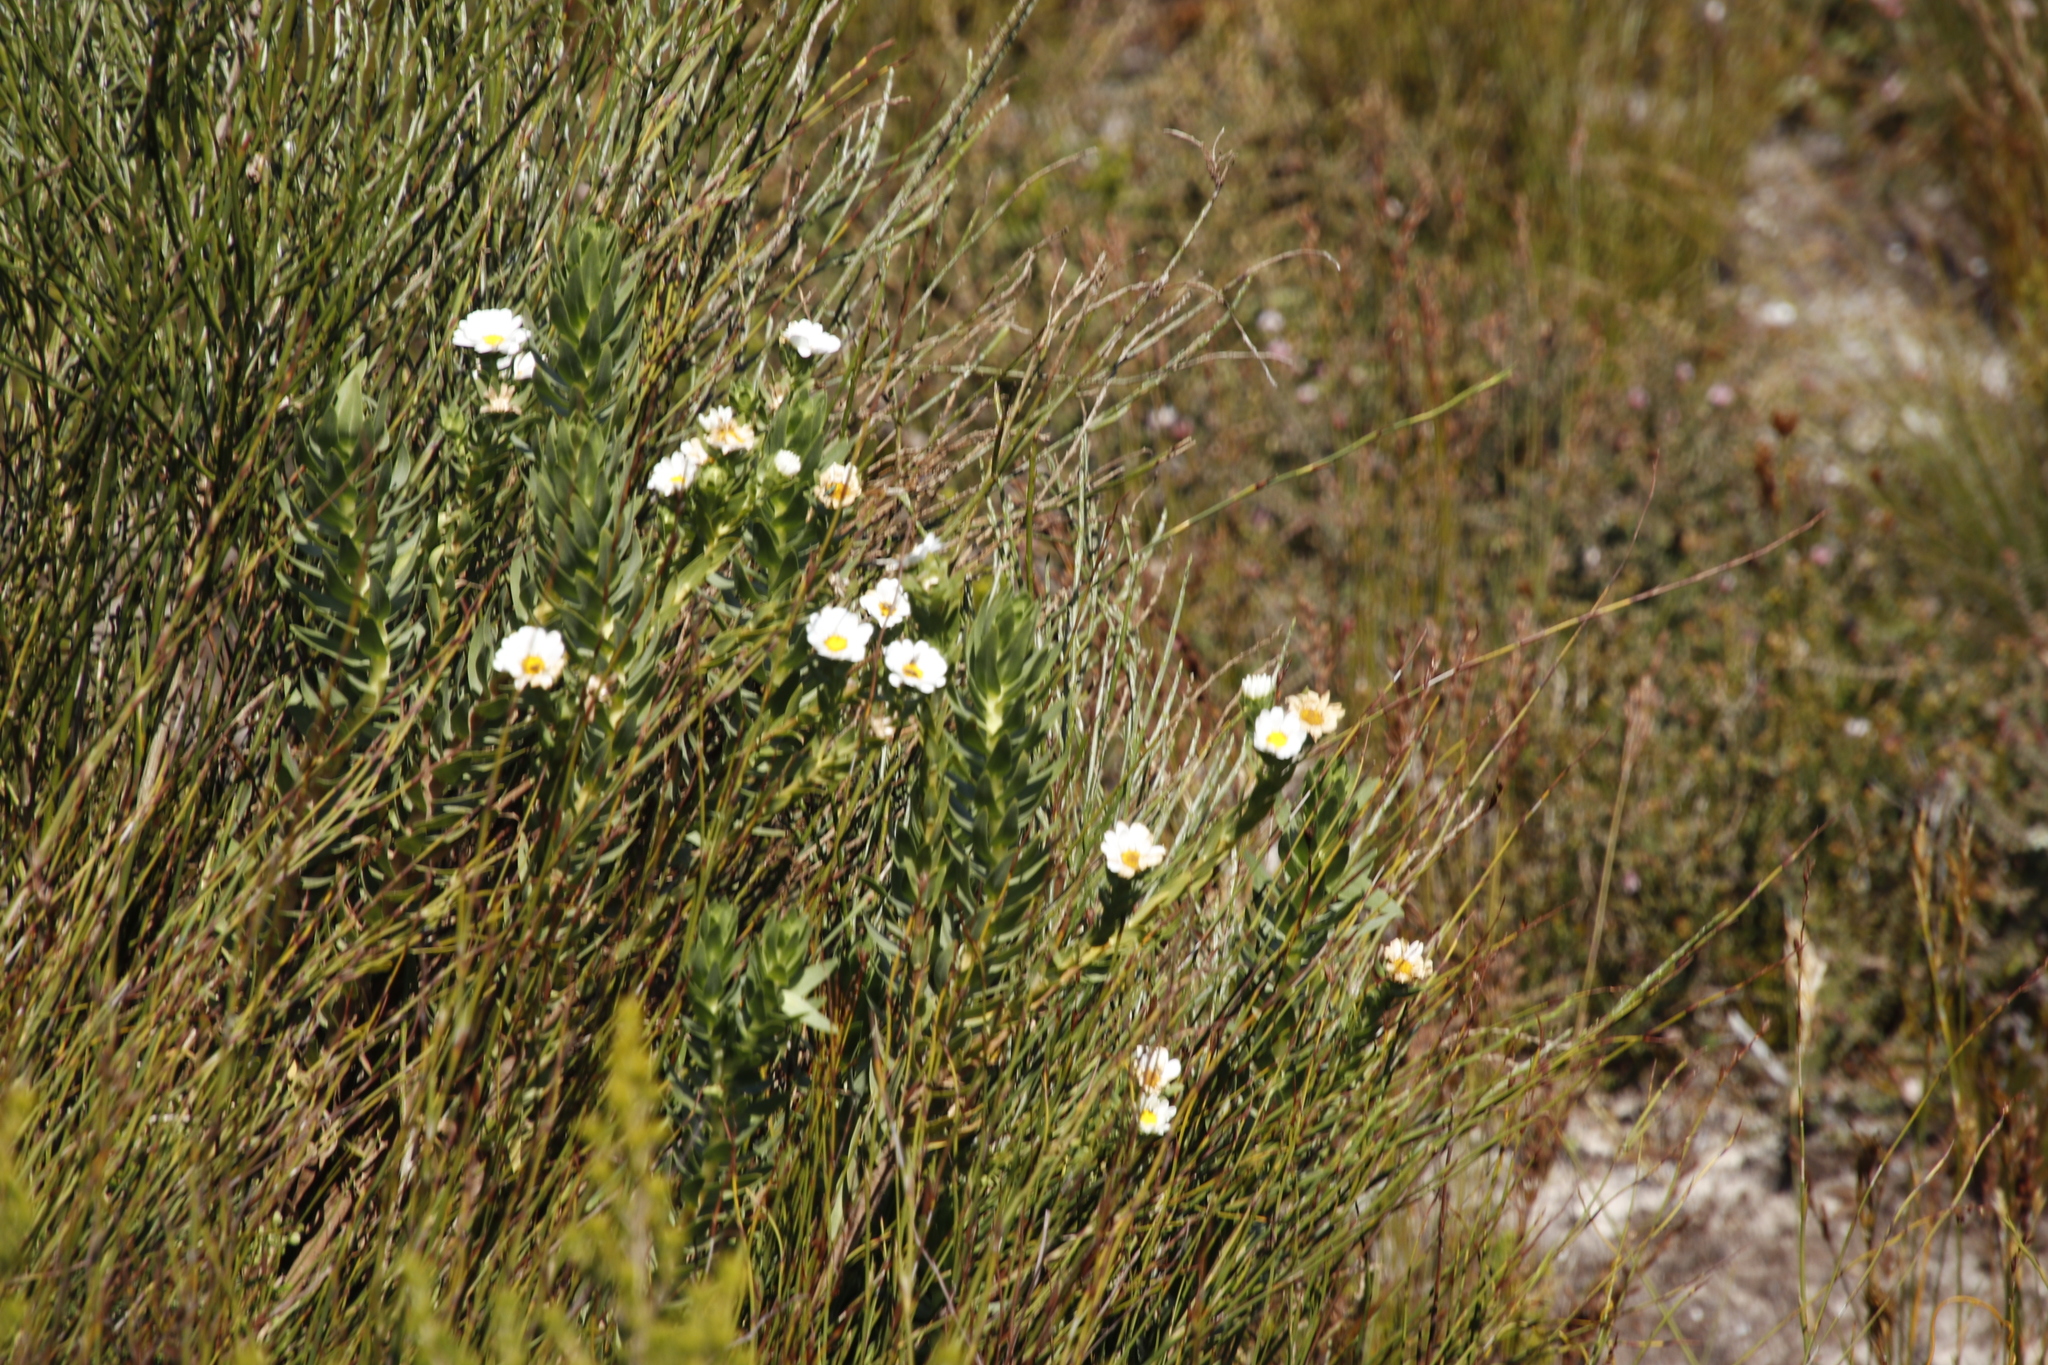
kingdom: Plantae
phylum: Tracheophyta
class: Magnoliopsida
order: Asterales
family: Asteraceae
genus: Osmitopsis
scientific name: Osmitopsis asteriscoides
